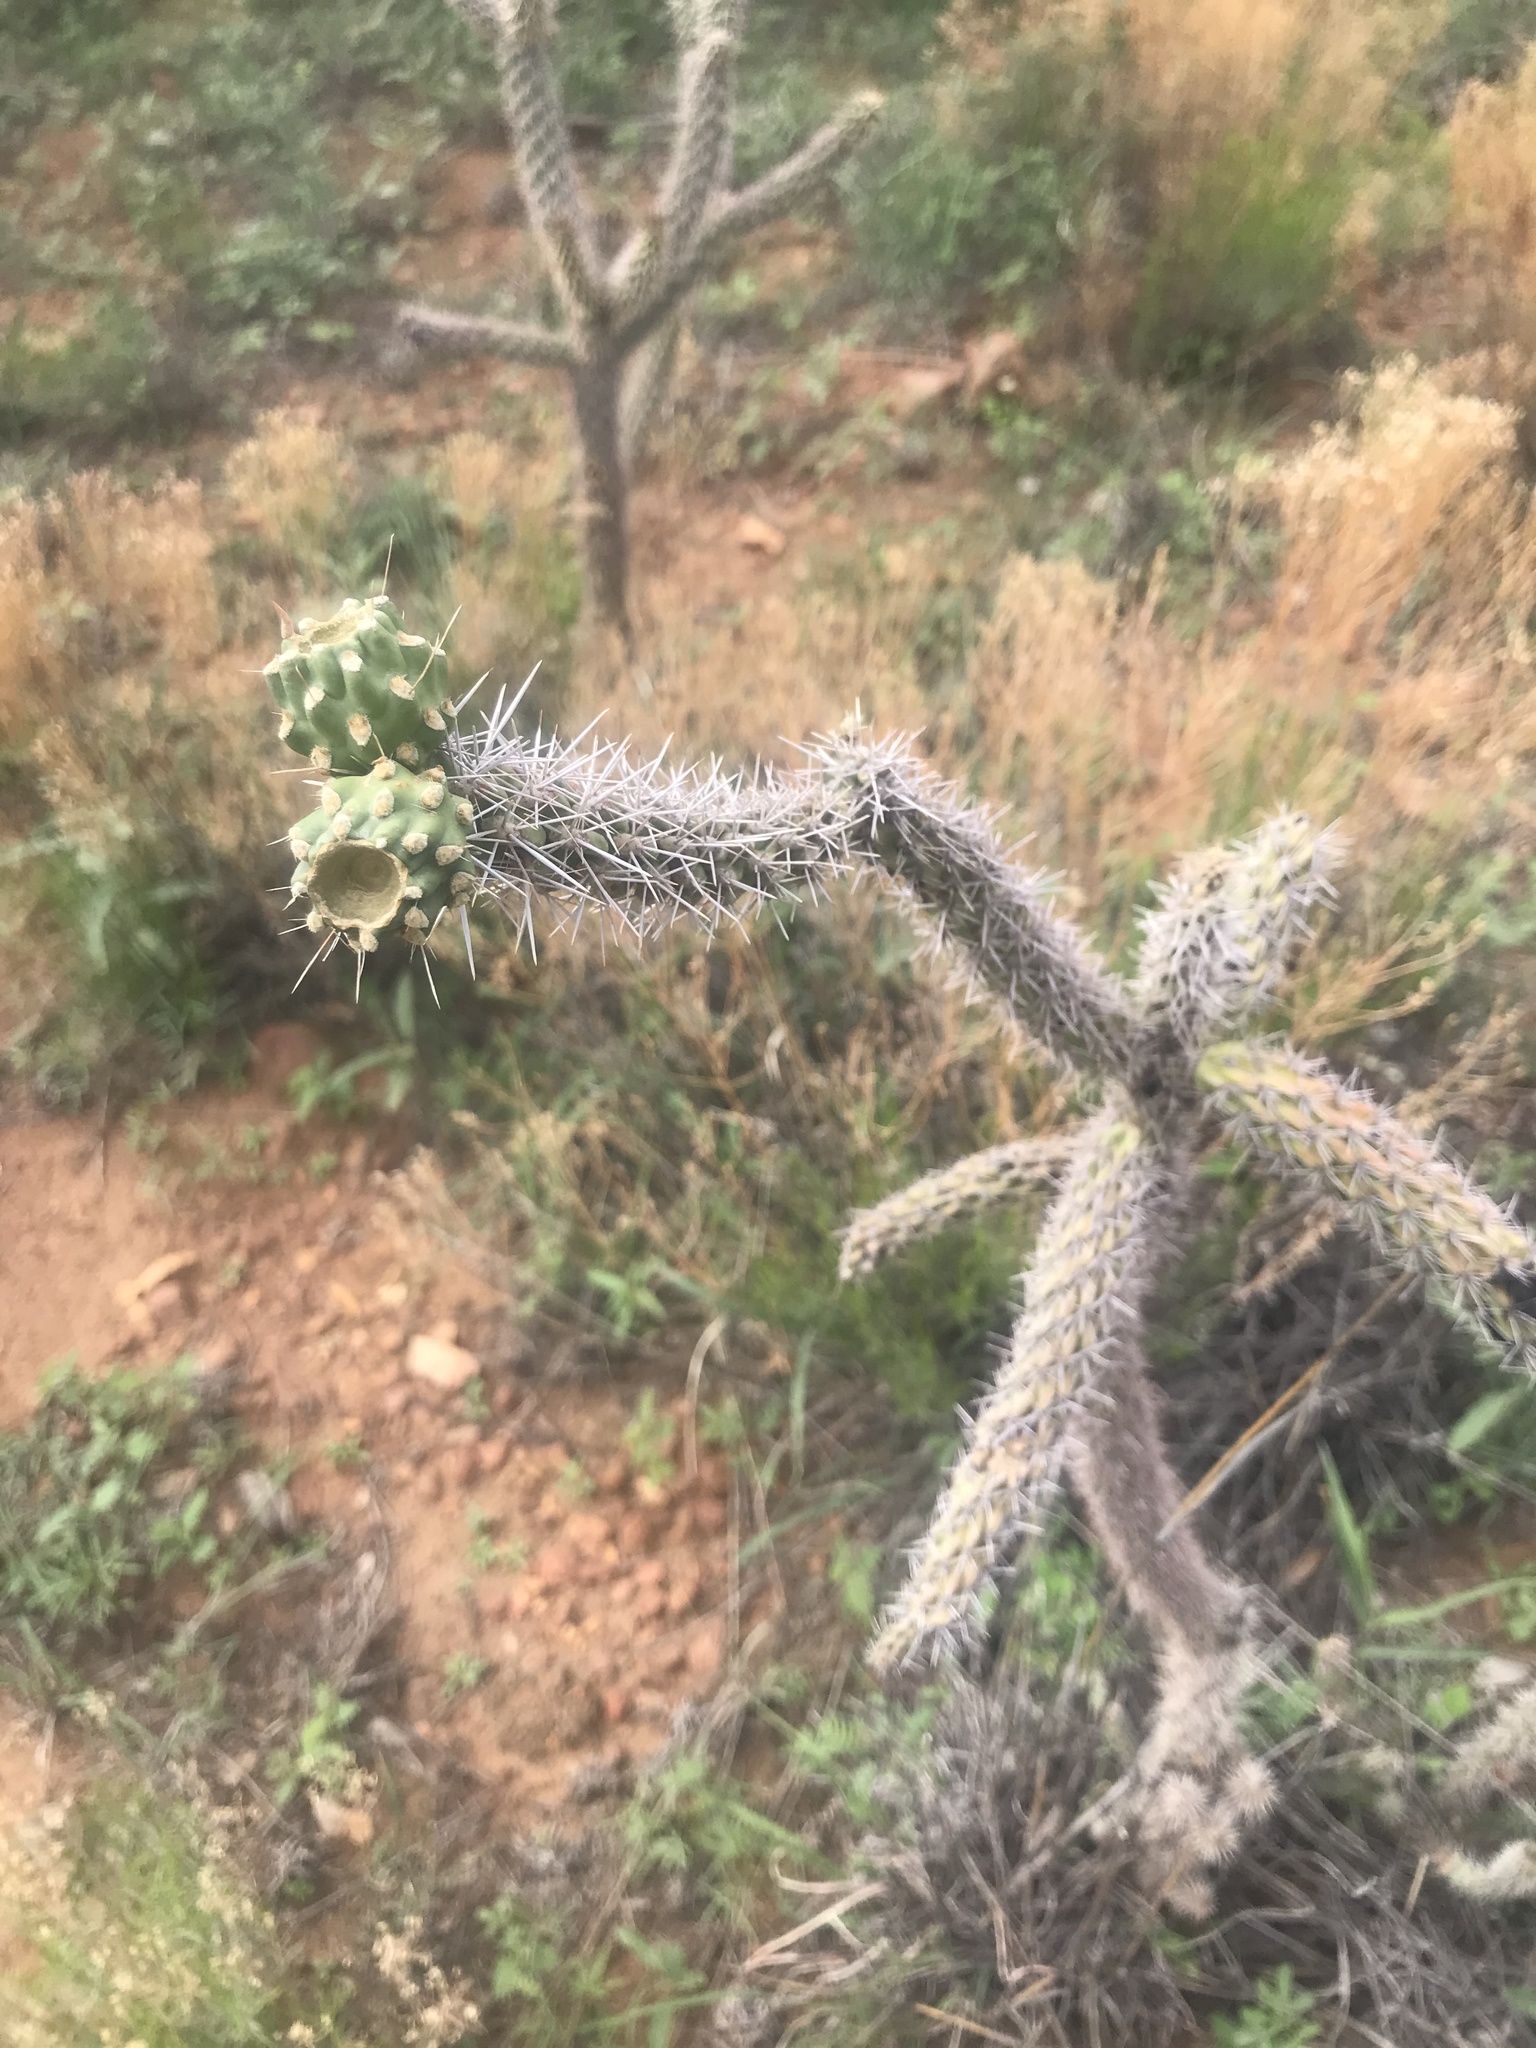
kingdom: Plantae
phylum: Tracheophyta
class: Magnoliopsida
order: Caryophyllales
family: Cactaceae
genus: Cylindropuntia
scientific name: Cylindropuntia imbricata
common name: Candelabrum cactus
